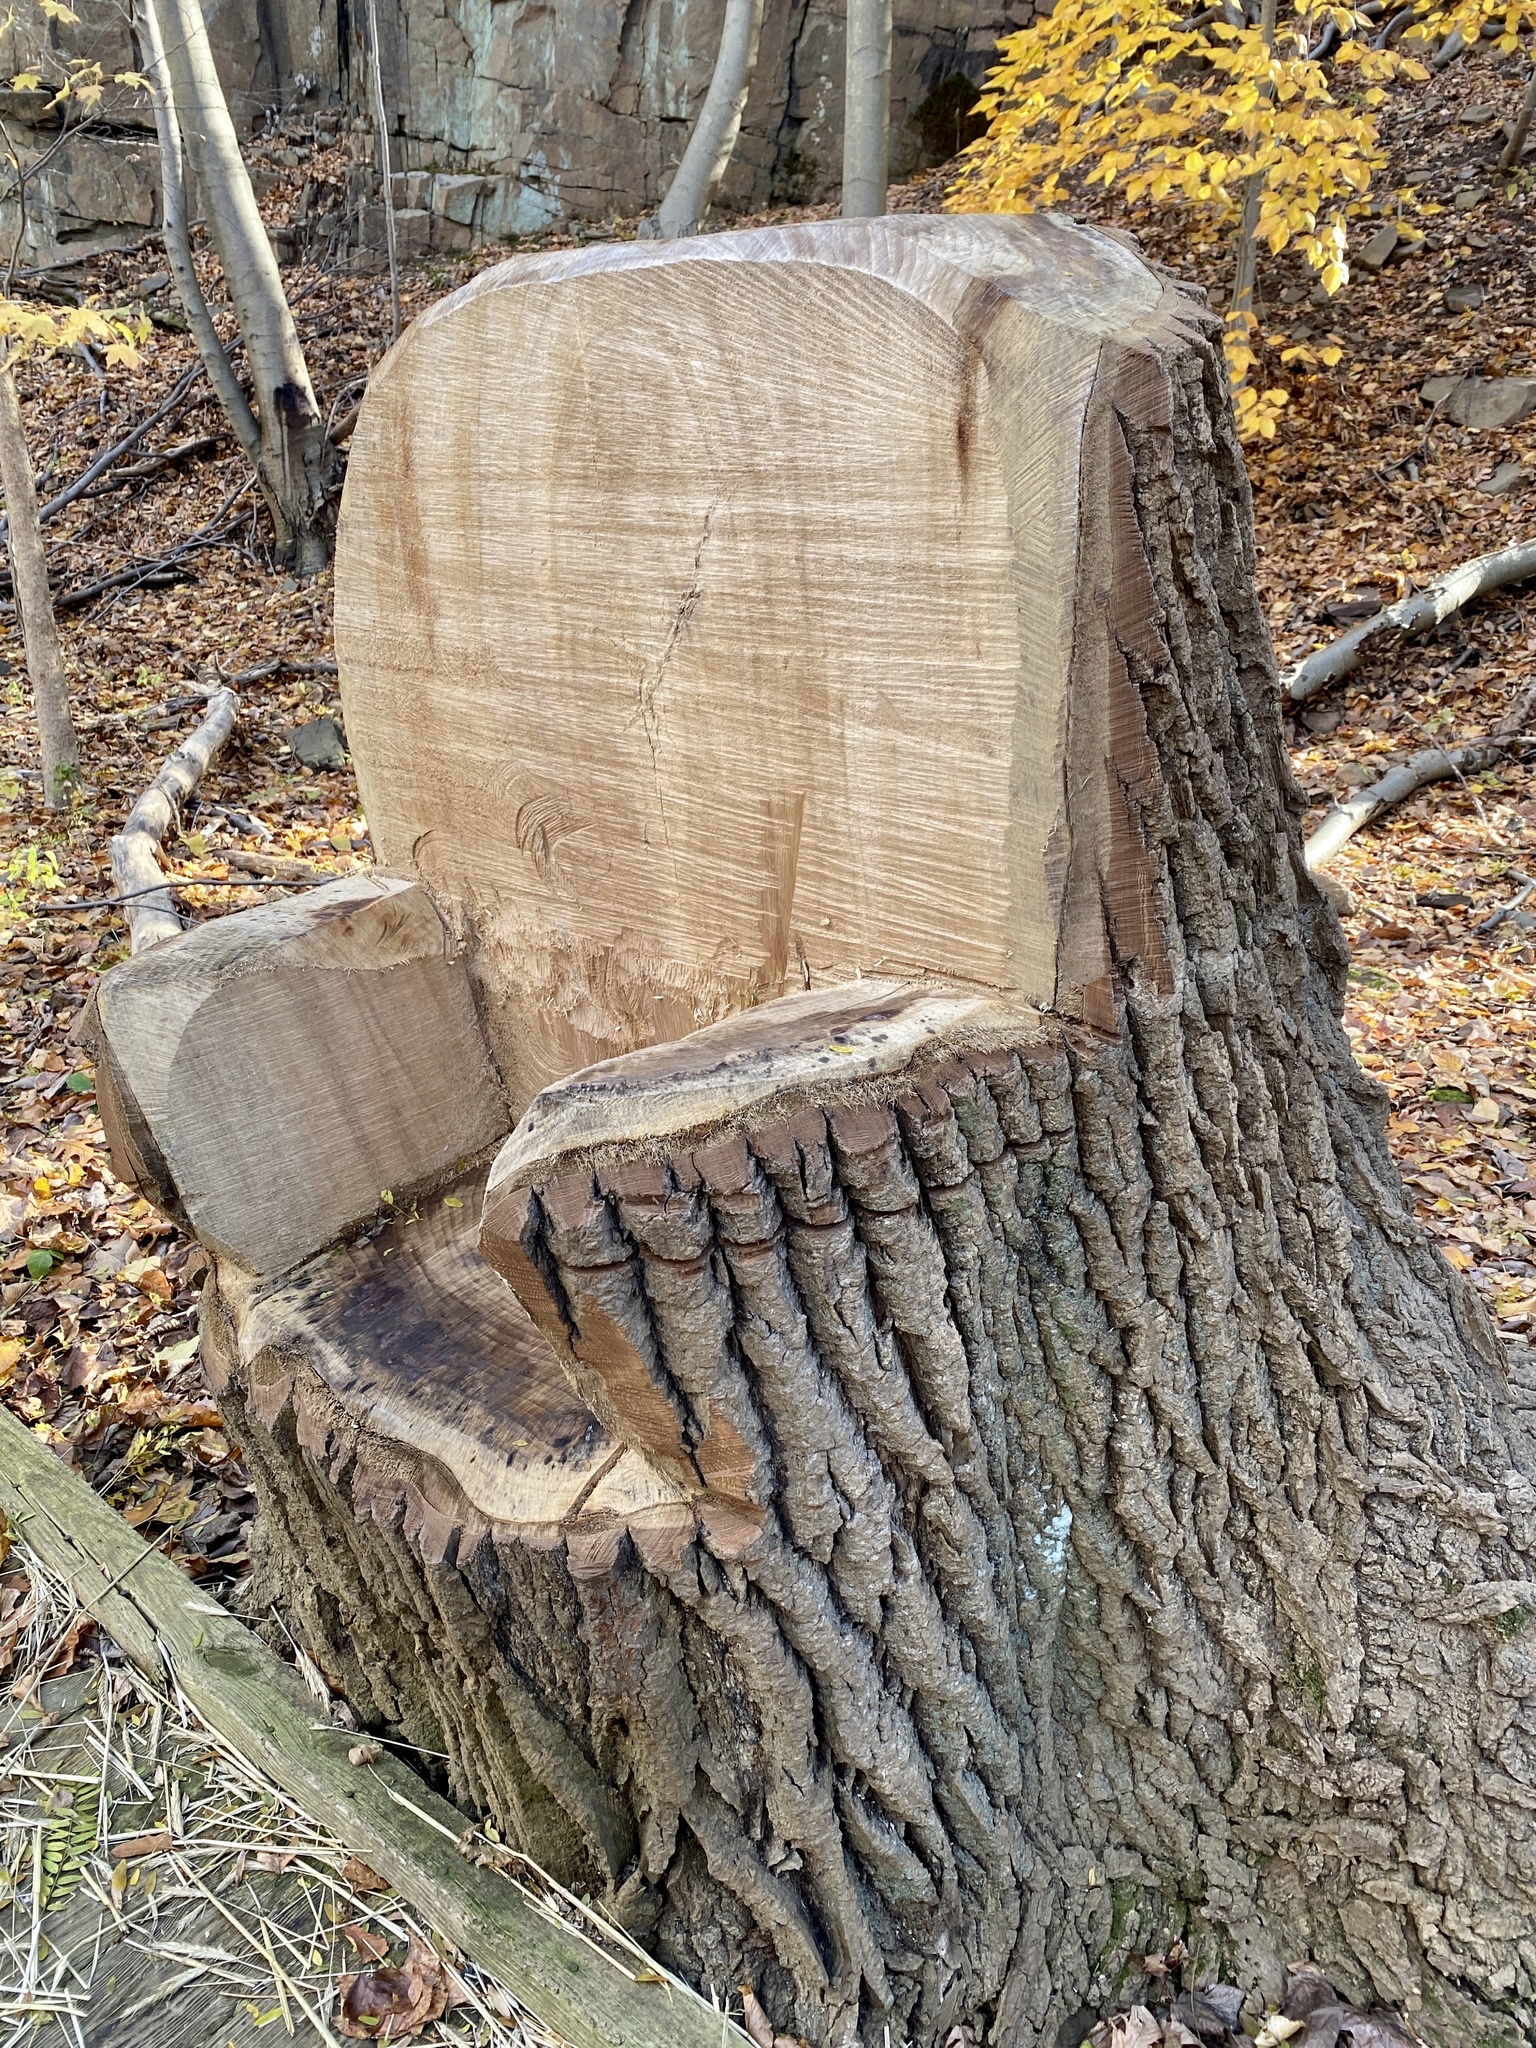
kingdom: Plantae
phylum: Tracheophyta
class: Magnoliopsida
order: Malpighiales
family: Salicaceae
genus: Populus
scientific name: Populus deltoides
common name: Eastern cottonwood
